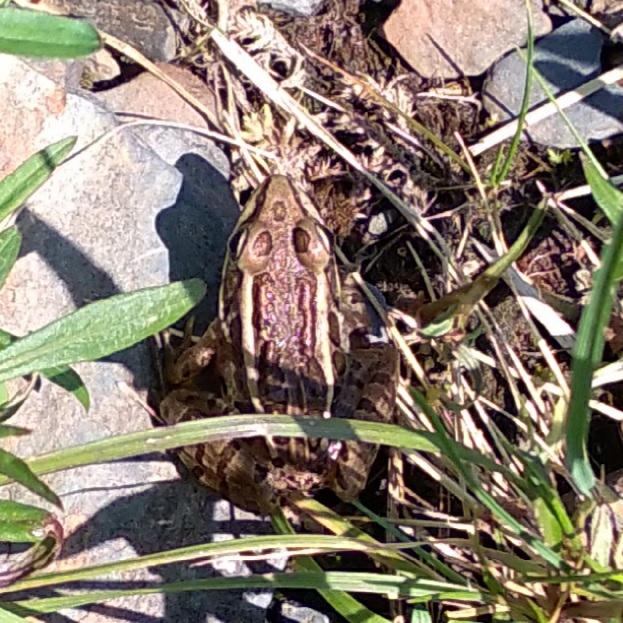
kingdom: Animalia
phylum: Chordata
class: Amphibia
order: Anura
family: Ranidae
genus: Lithobates
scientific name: Lithobates pipiens
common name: Northern leopard frog
